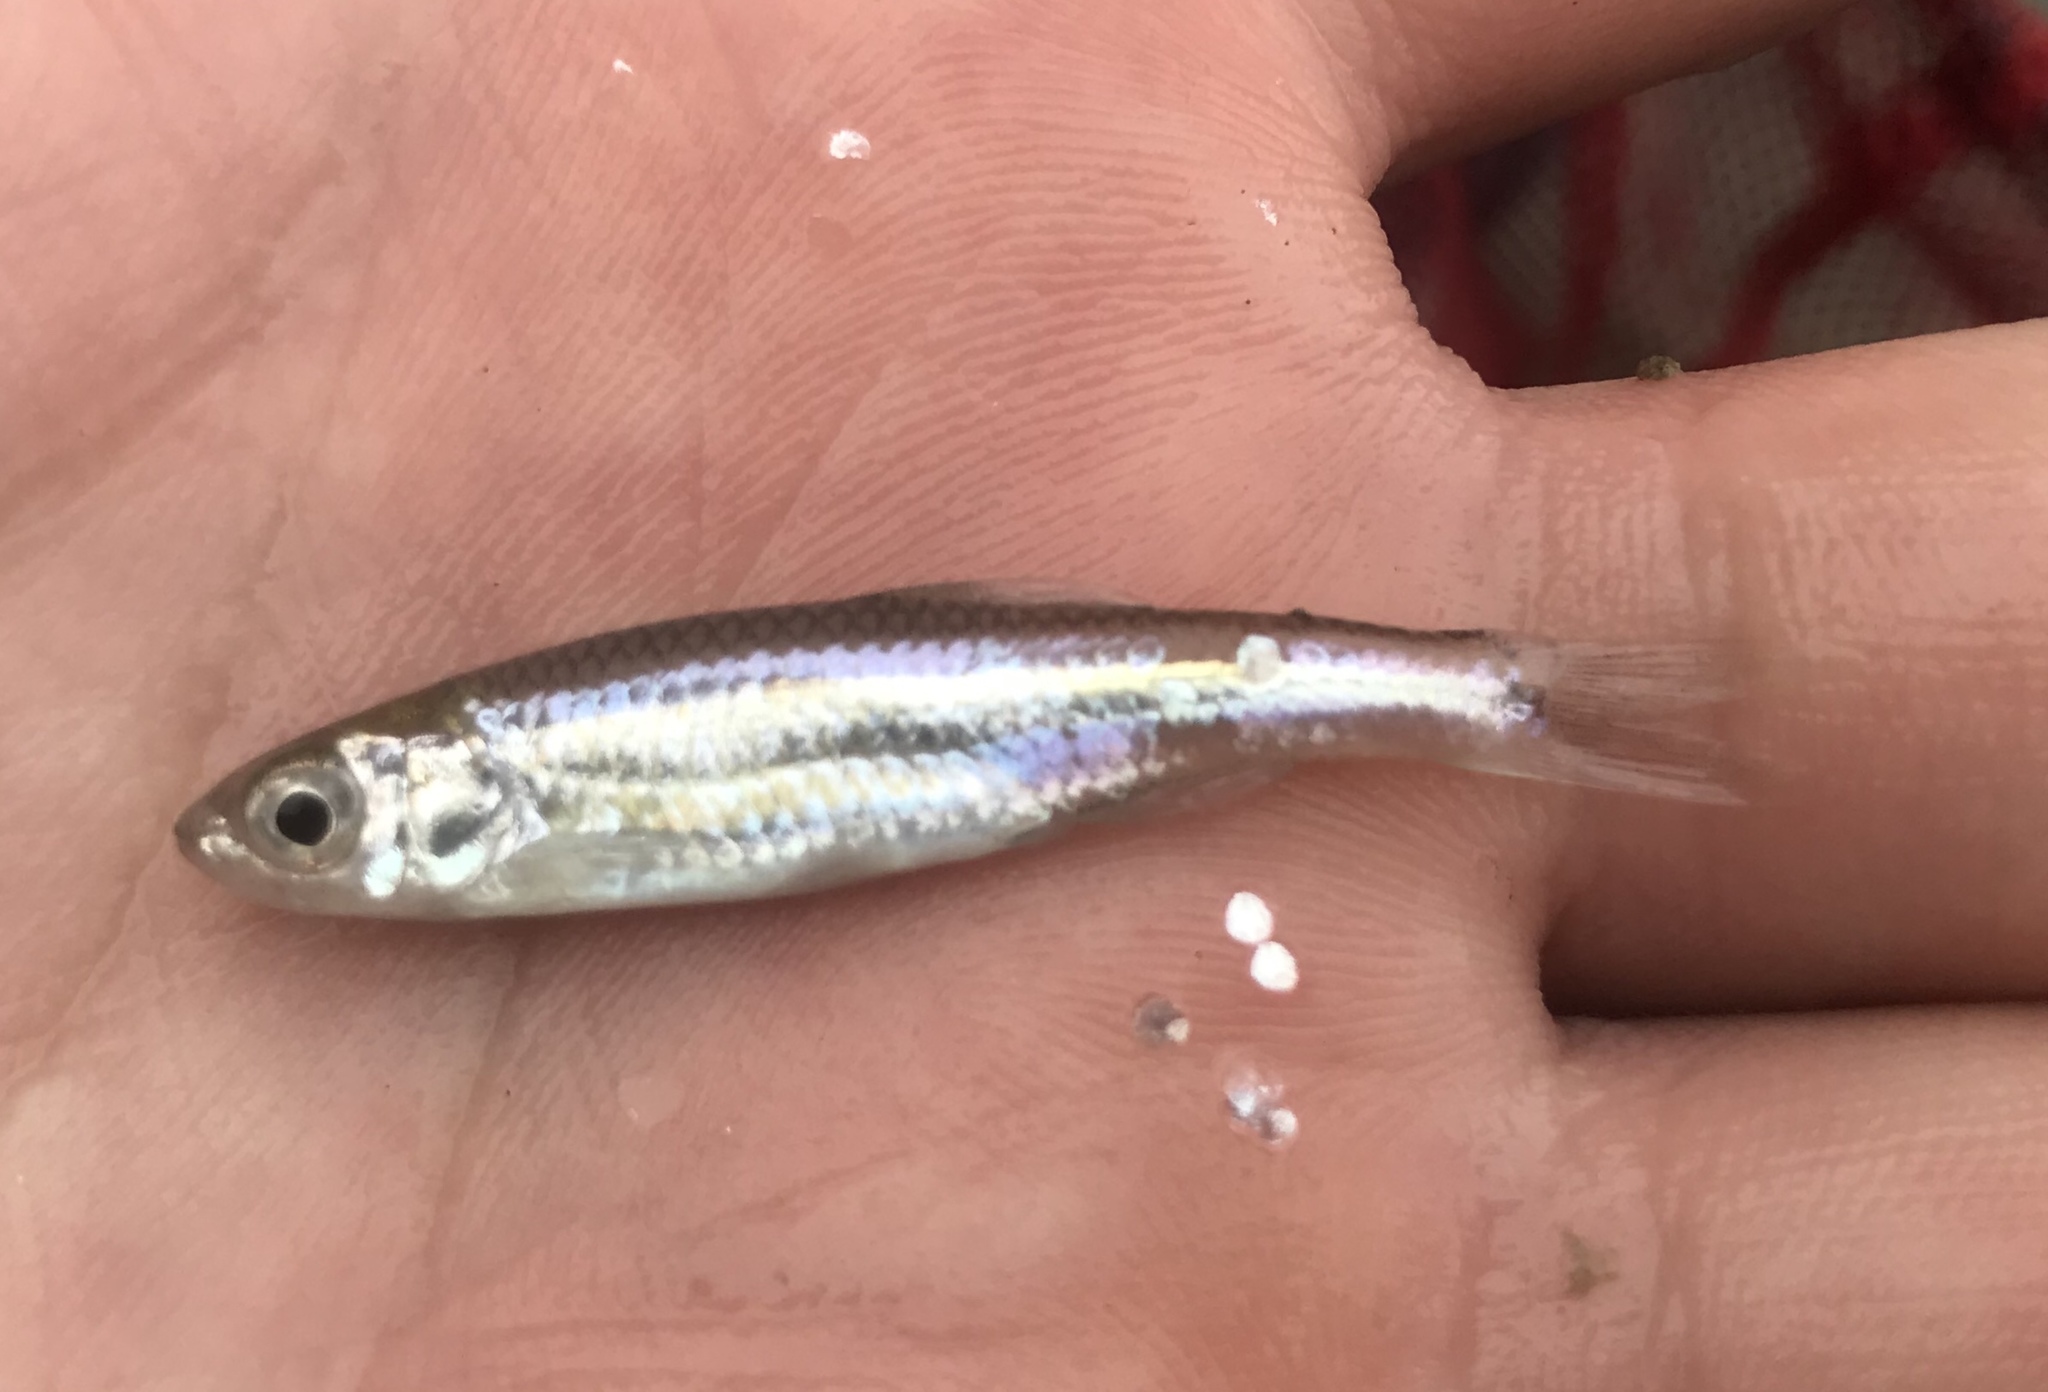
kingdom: Animalia
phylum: Chordata
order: Cypriniformes
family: Cyprinidae
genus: Notropis
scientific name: Notropis amabilis
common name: Texas shiner
